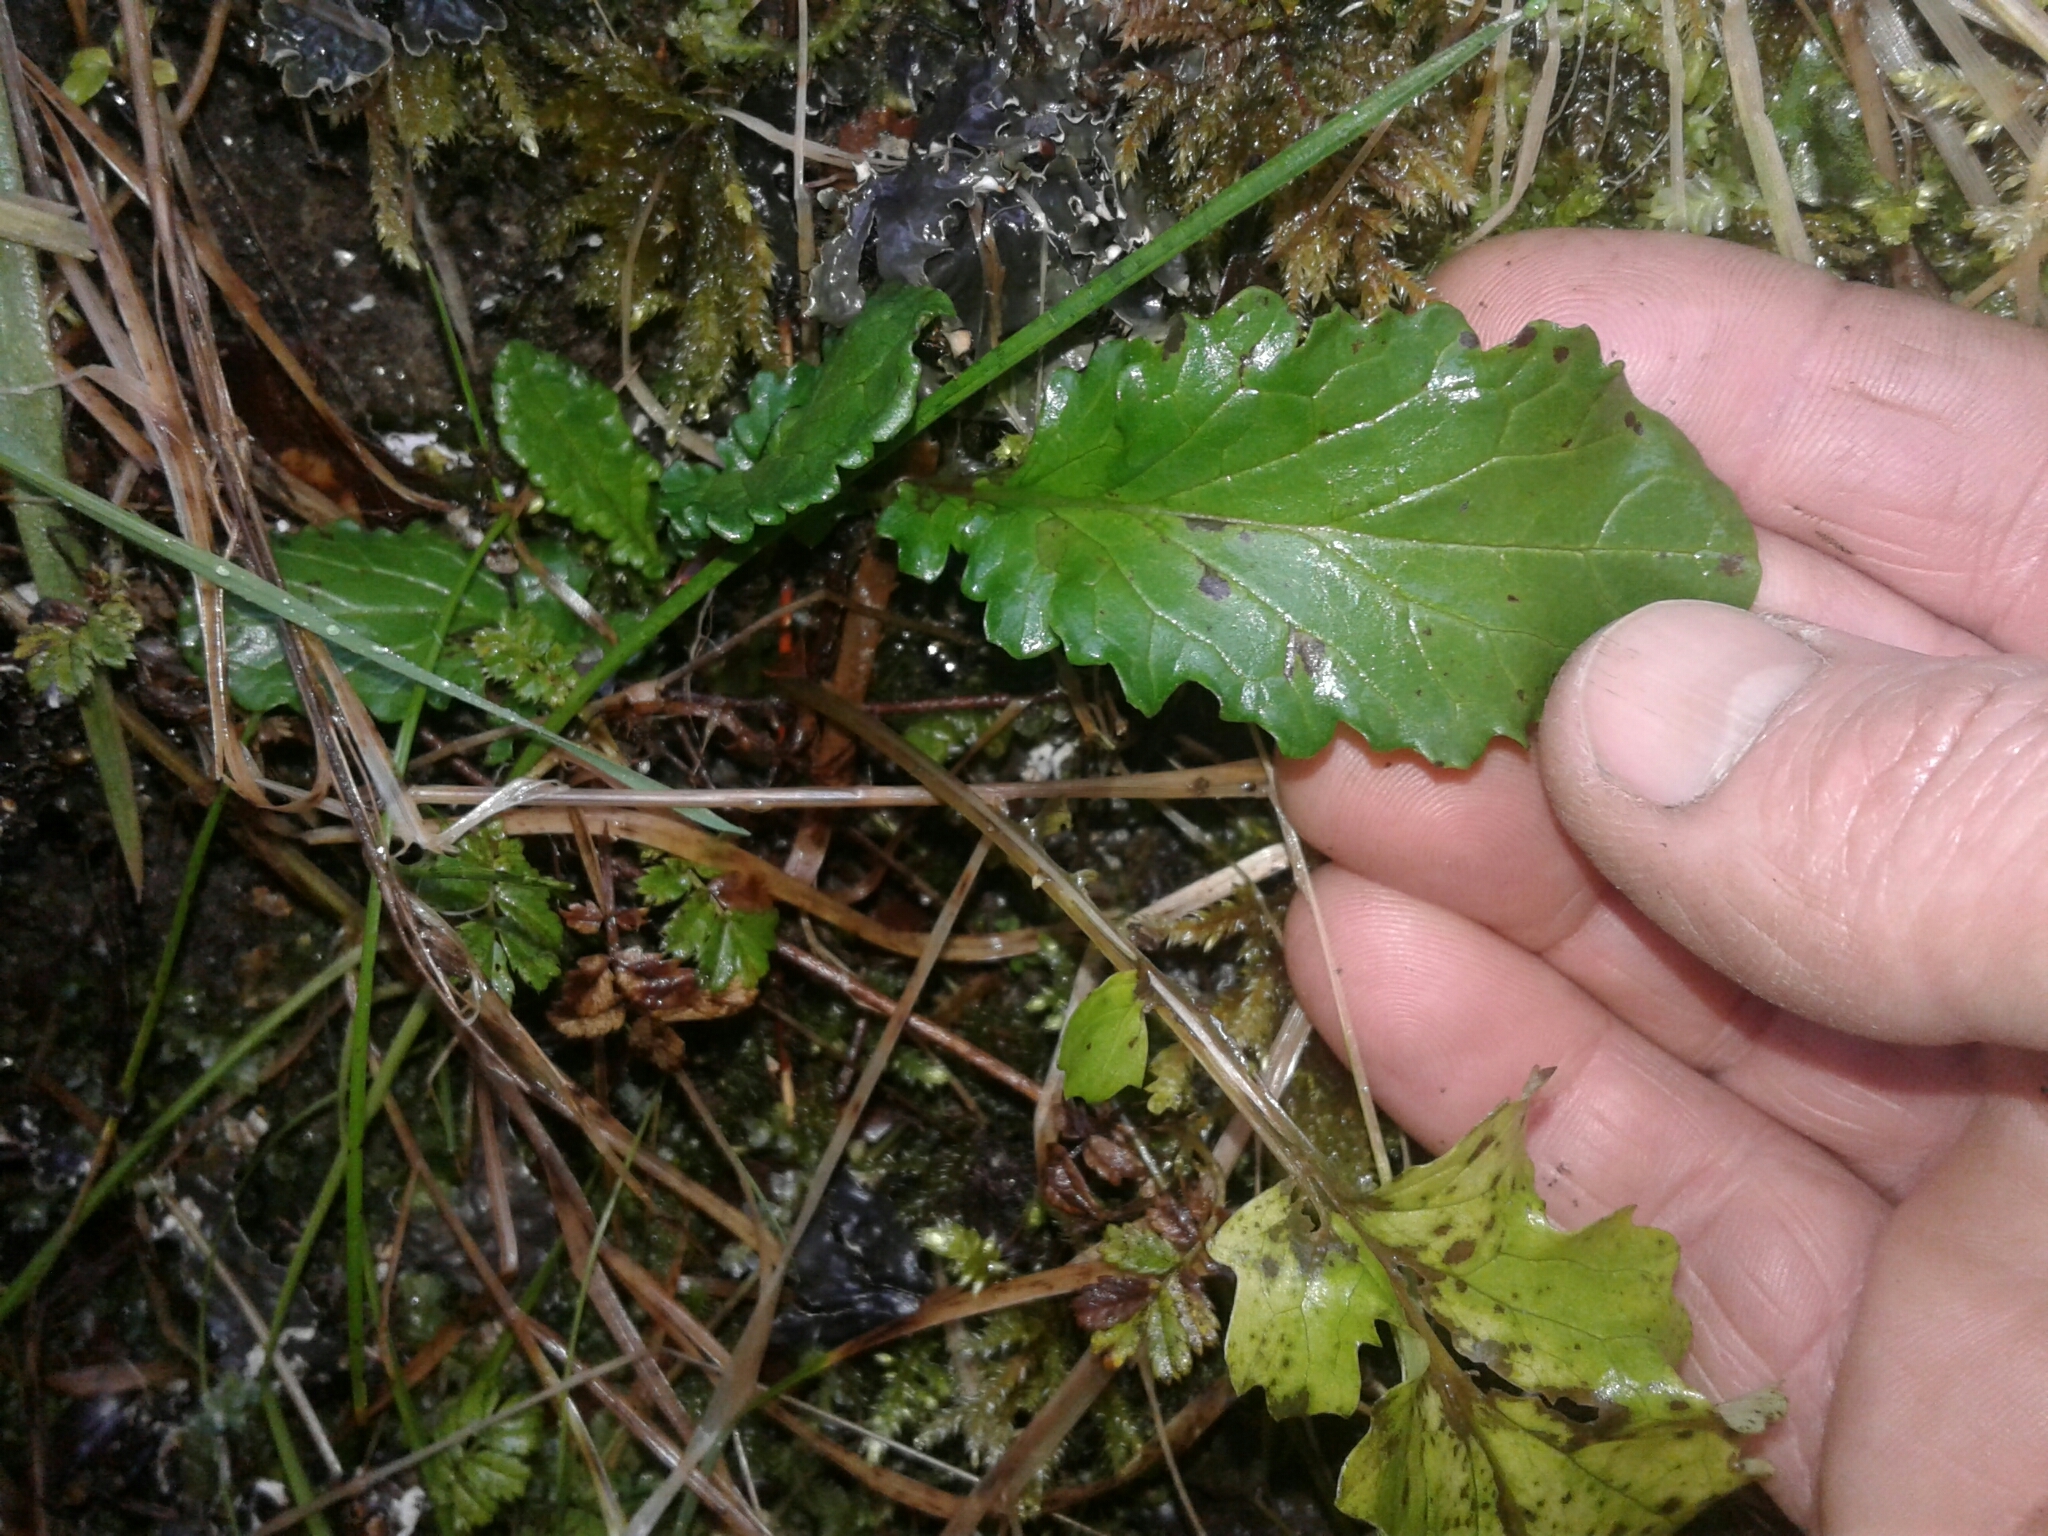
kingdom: Plantae
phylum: Tracheophyta
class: Magnoliopsida
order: Asterales
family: Asteraceae
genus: Jacobaea
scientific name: Jacobaea vulgaris
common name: Stinking willie
